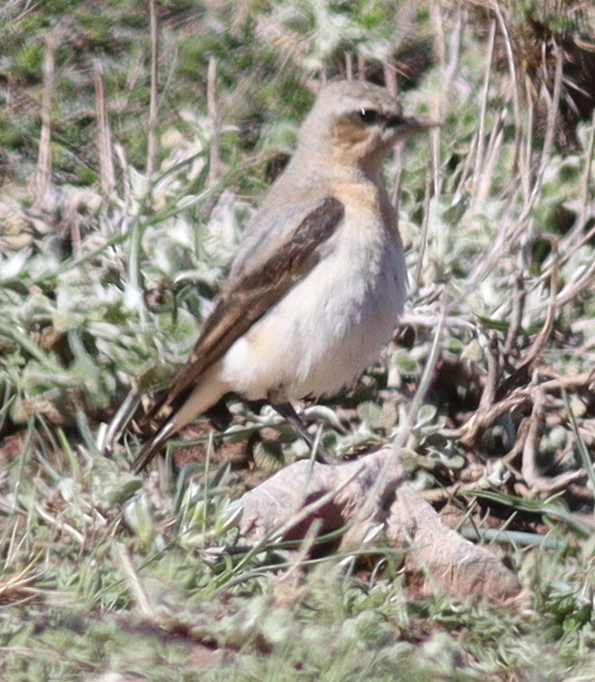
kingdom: Animalia
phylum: Chordata
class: Aves
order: Passeriformes
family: Muscicapidae
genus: Oenanthe
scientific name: Oenanthe oenanthe
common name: Northern wheatear
